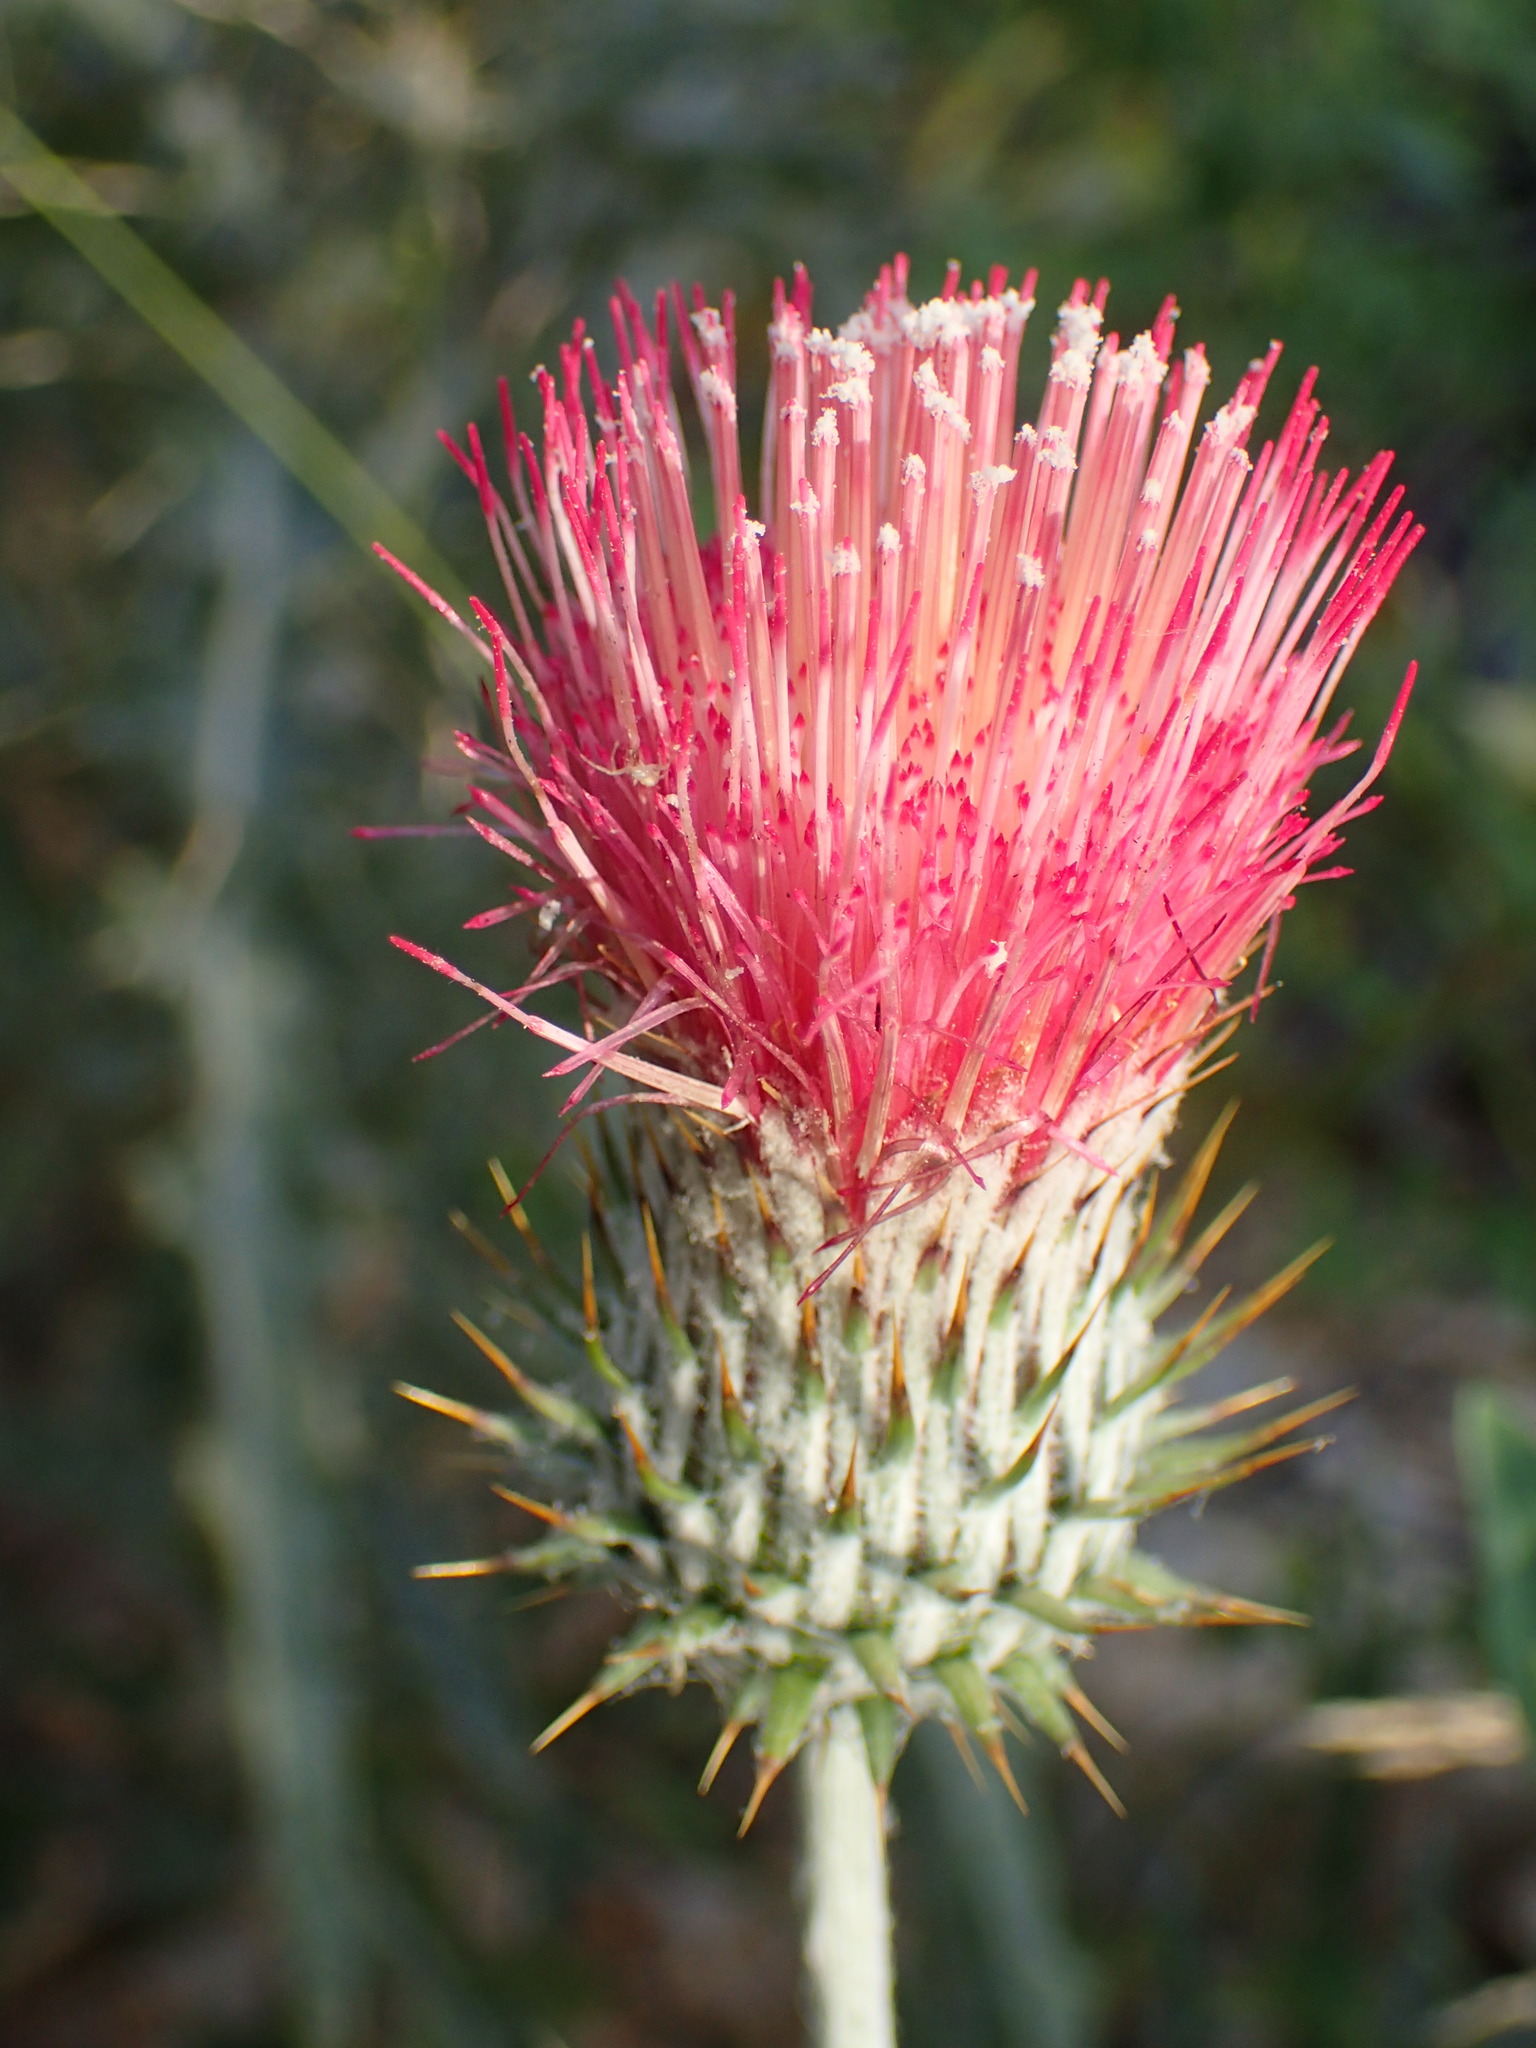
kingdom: Plantae
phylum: Tracheophyta
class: Magnoliopsida
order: Asterales
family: Asteraceae
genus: Cirsium
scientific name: Cirsium occidentale
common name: Western thistle
